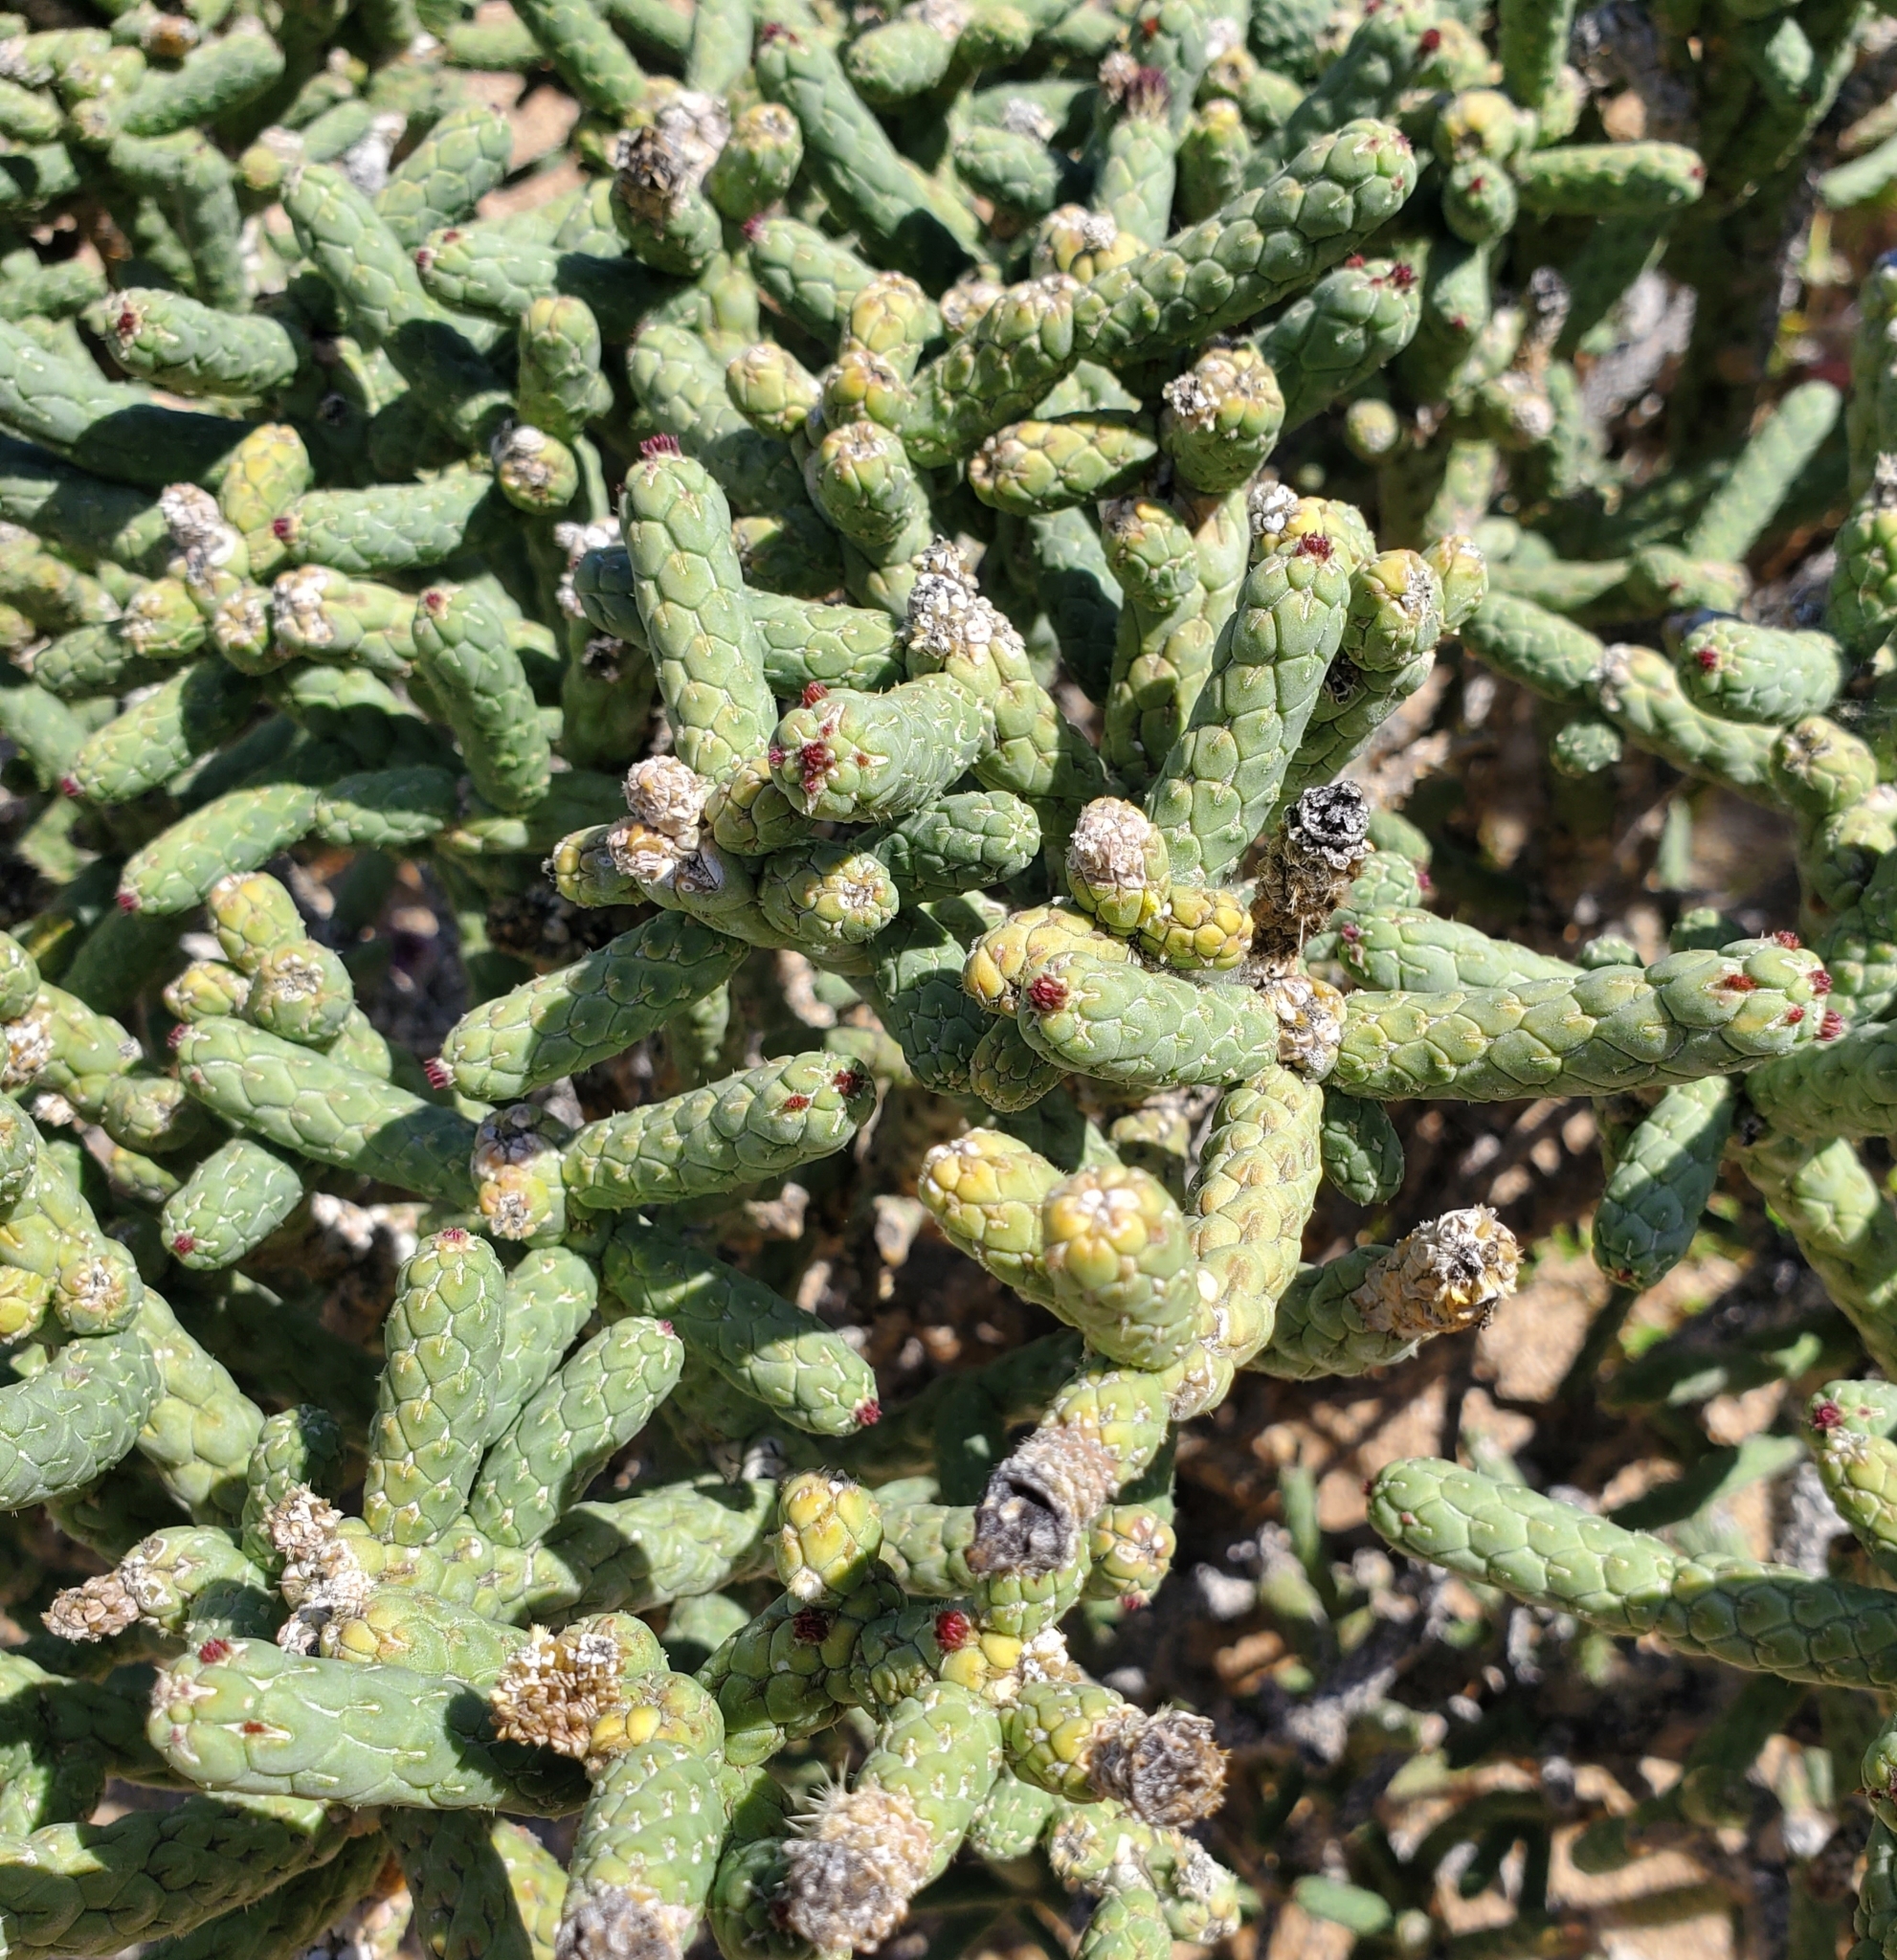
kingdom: Plantae
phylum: Tracheophyta
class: Magnoliopsida
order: Caryophyllales
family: Cactaceae
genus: Cylindropuntia
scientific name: Cylindropuntia ramosissima
